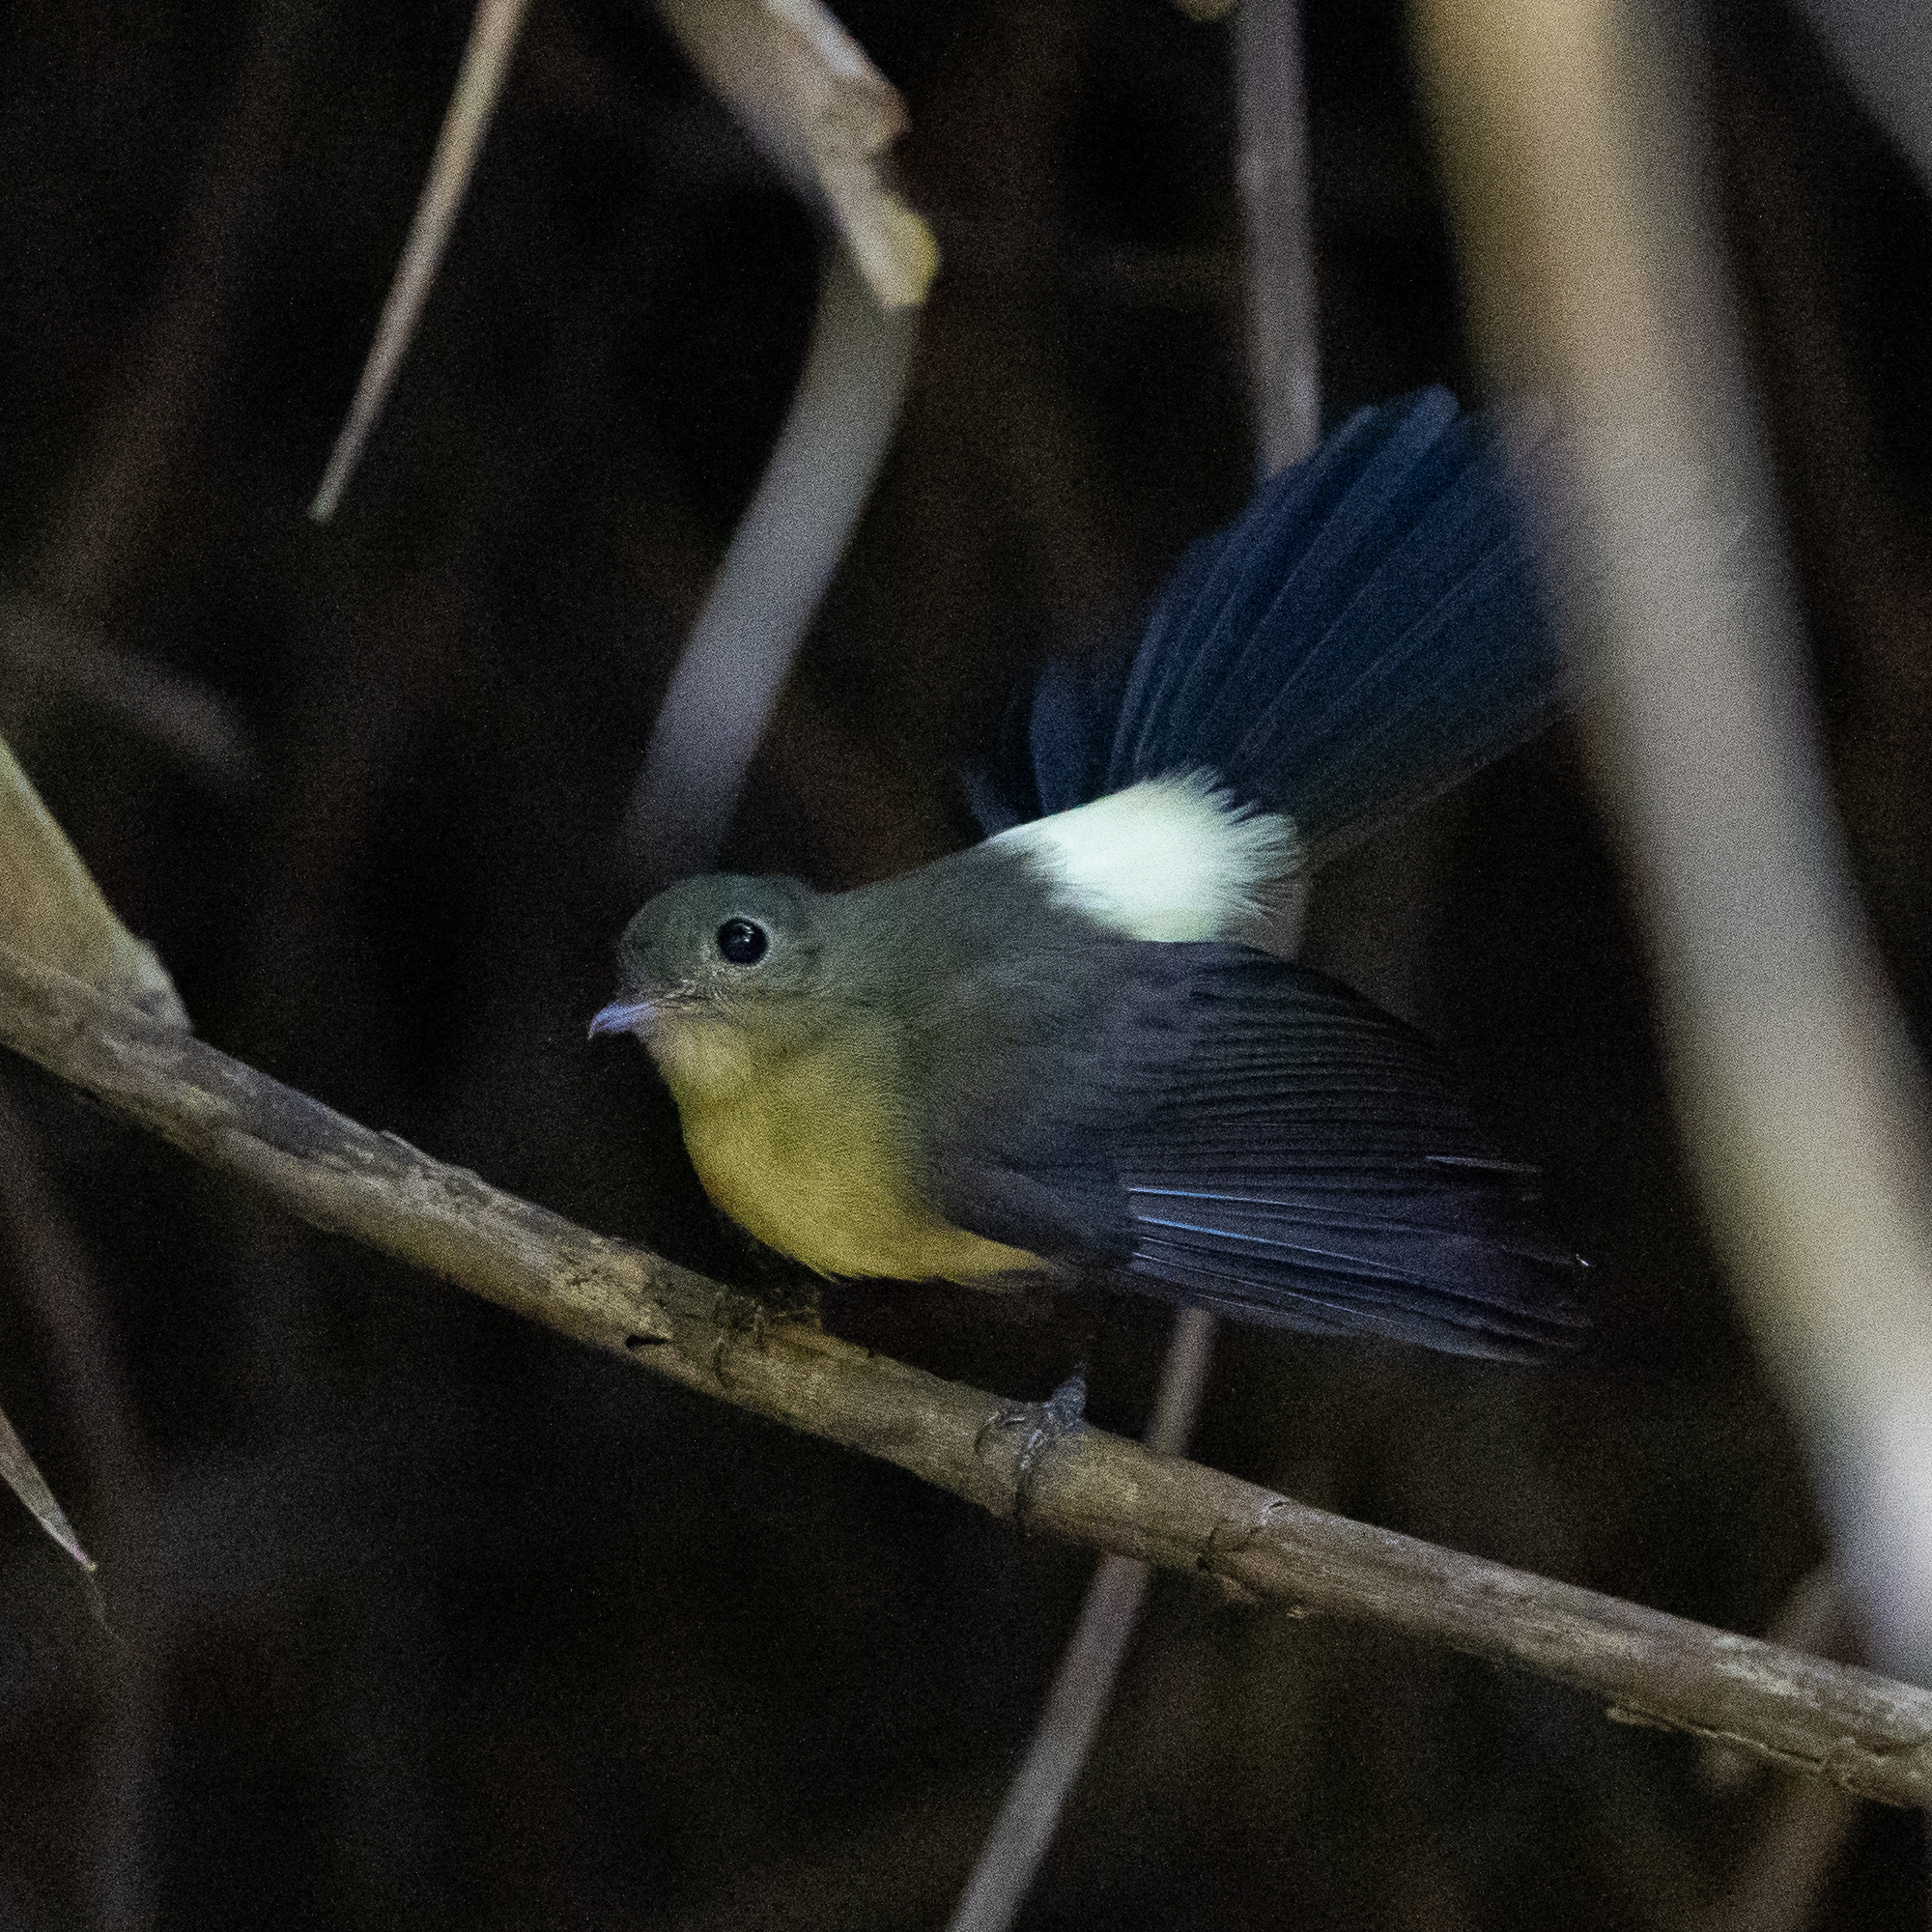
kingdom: Animalia
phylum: Chordata
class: Aves
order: Passeriformes
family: Tyrannidae
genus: Myiobius
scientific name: Myiobius barbatus
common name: Whiskered myiobius
